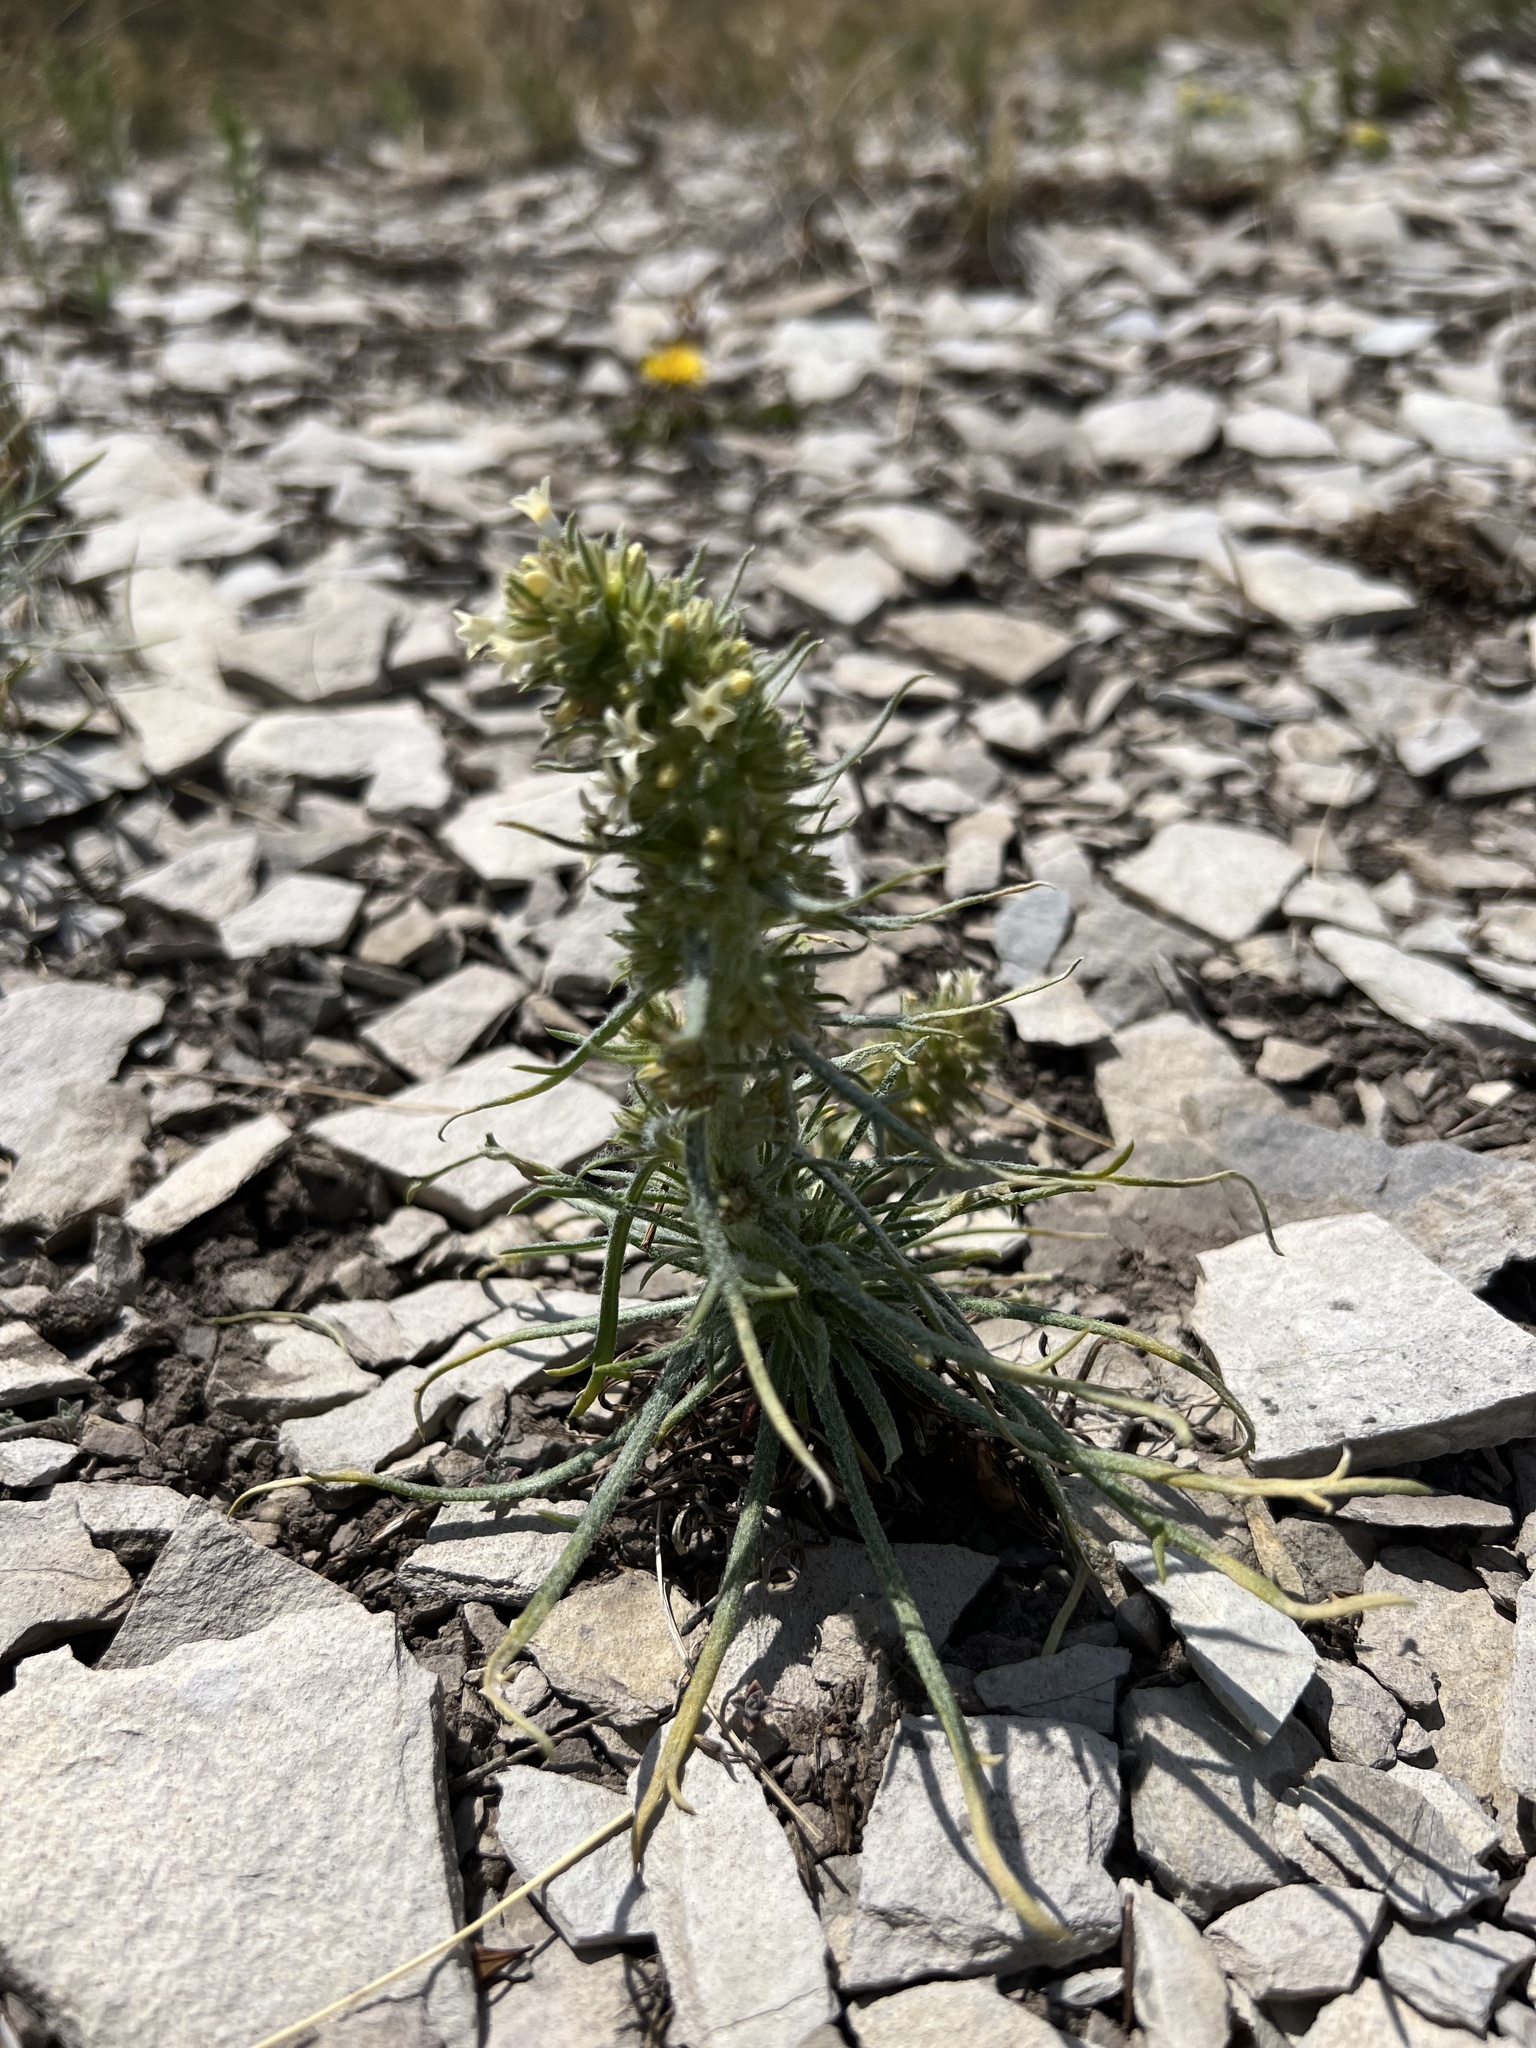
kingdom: Plantae
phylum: Tracheophyta
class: Magnoliopsida
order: Ericales
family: Polemoniaceae
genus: Ipomopsis
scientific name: Ipomopsis spicata
